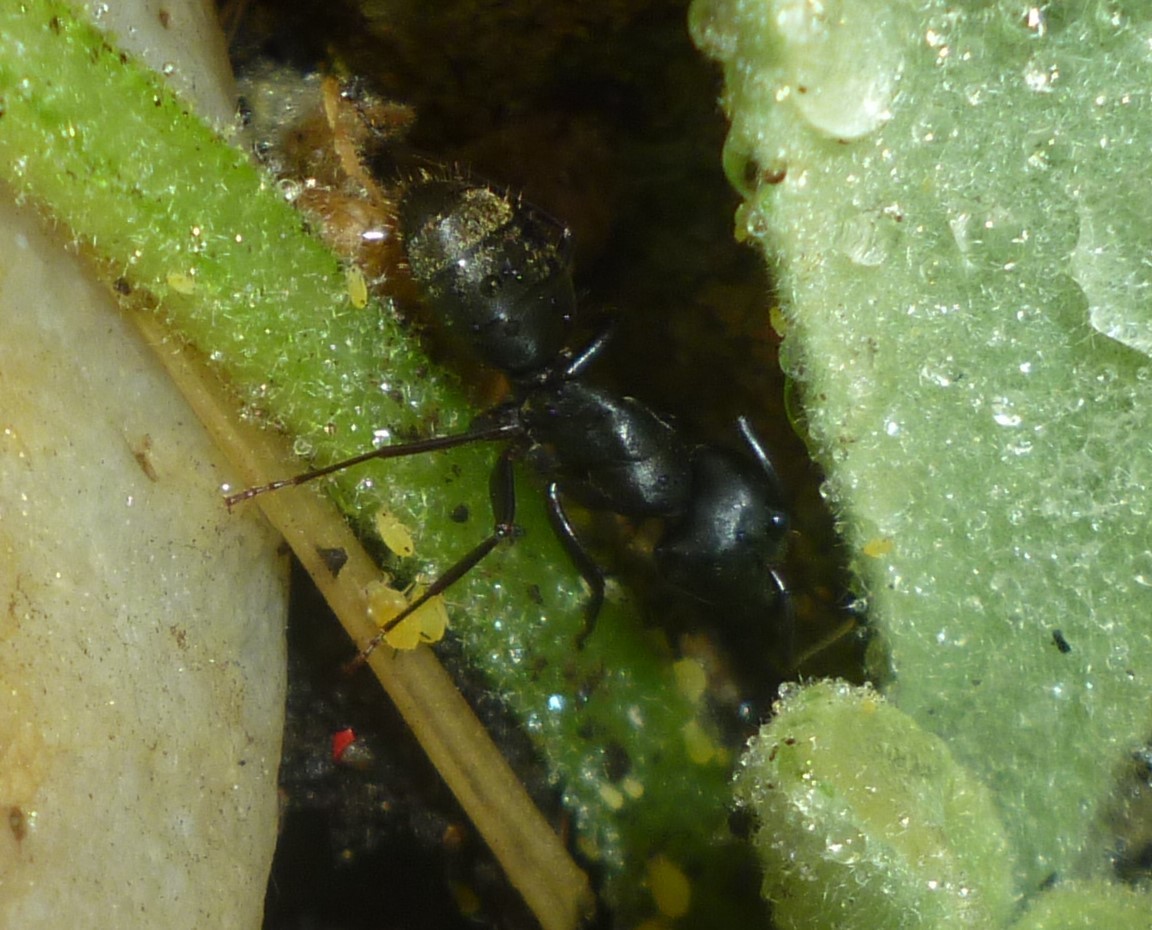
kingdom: Animalia
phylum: Arthropoda
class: Insecta
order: Hymenoptera
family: Formicidae
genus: Camponotus
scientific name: Camponotus pennsylvanicus
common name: Black carpenter ant
